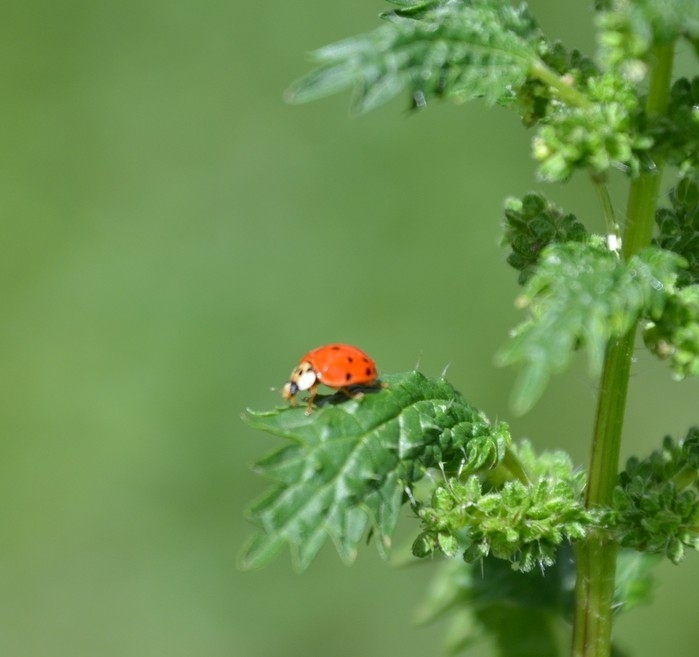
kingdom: Animalia
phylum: Arthropoda
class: Insecta
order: Coleoptera
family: Coccinellidae
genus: Harmonia
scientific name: Harmonia axyridis
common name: Harlequin ladybird
